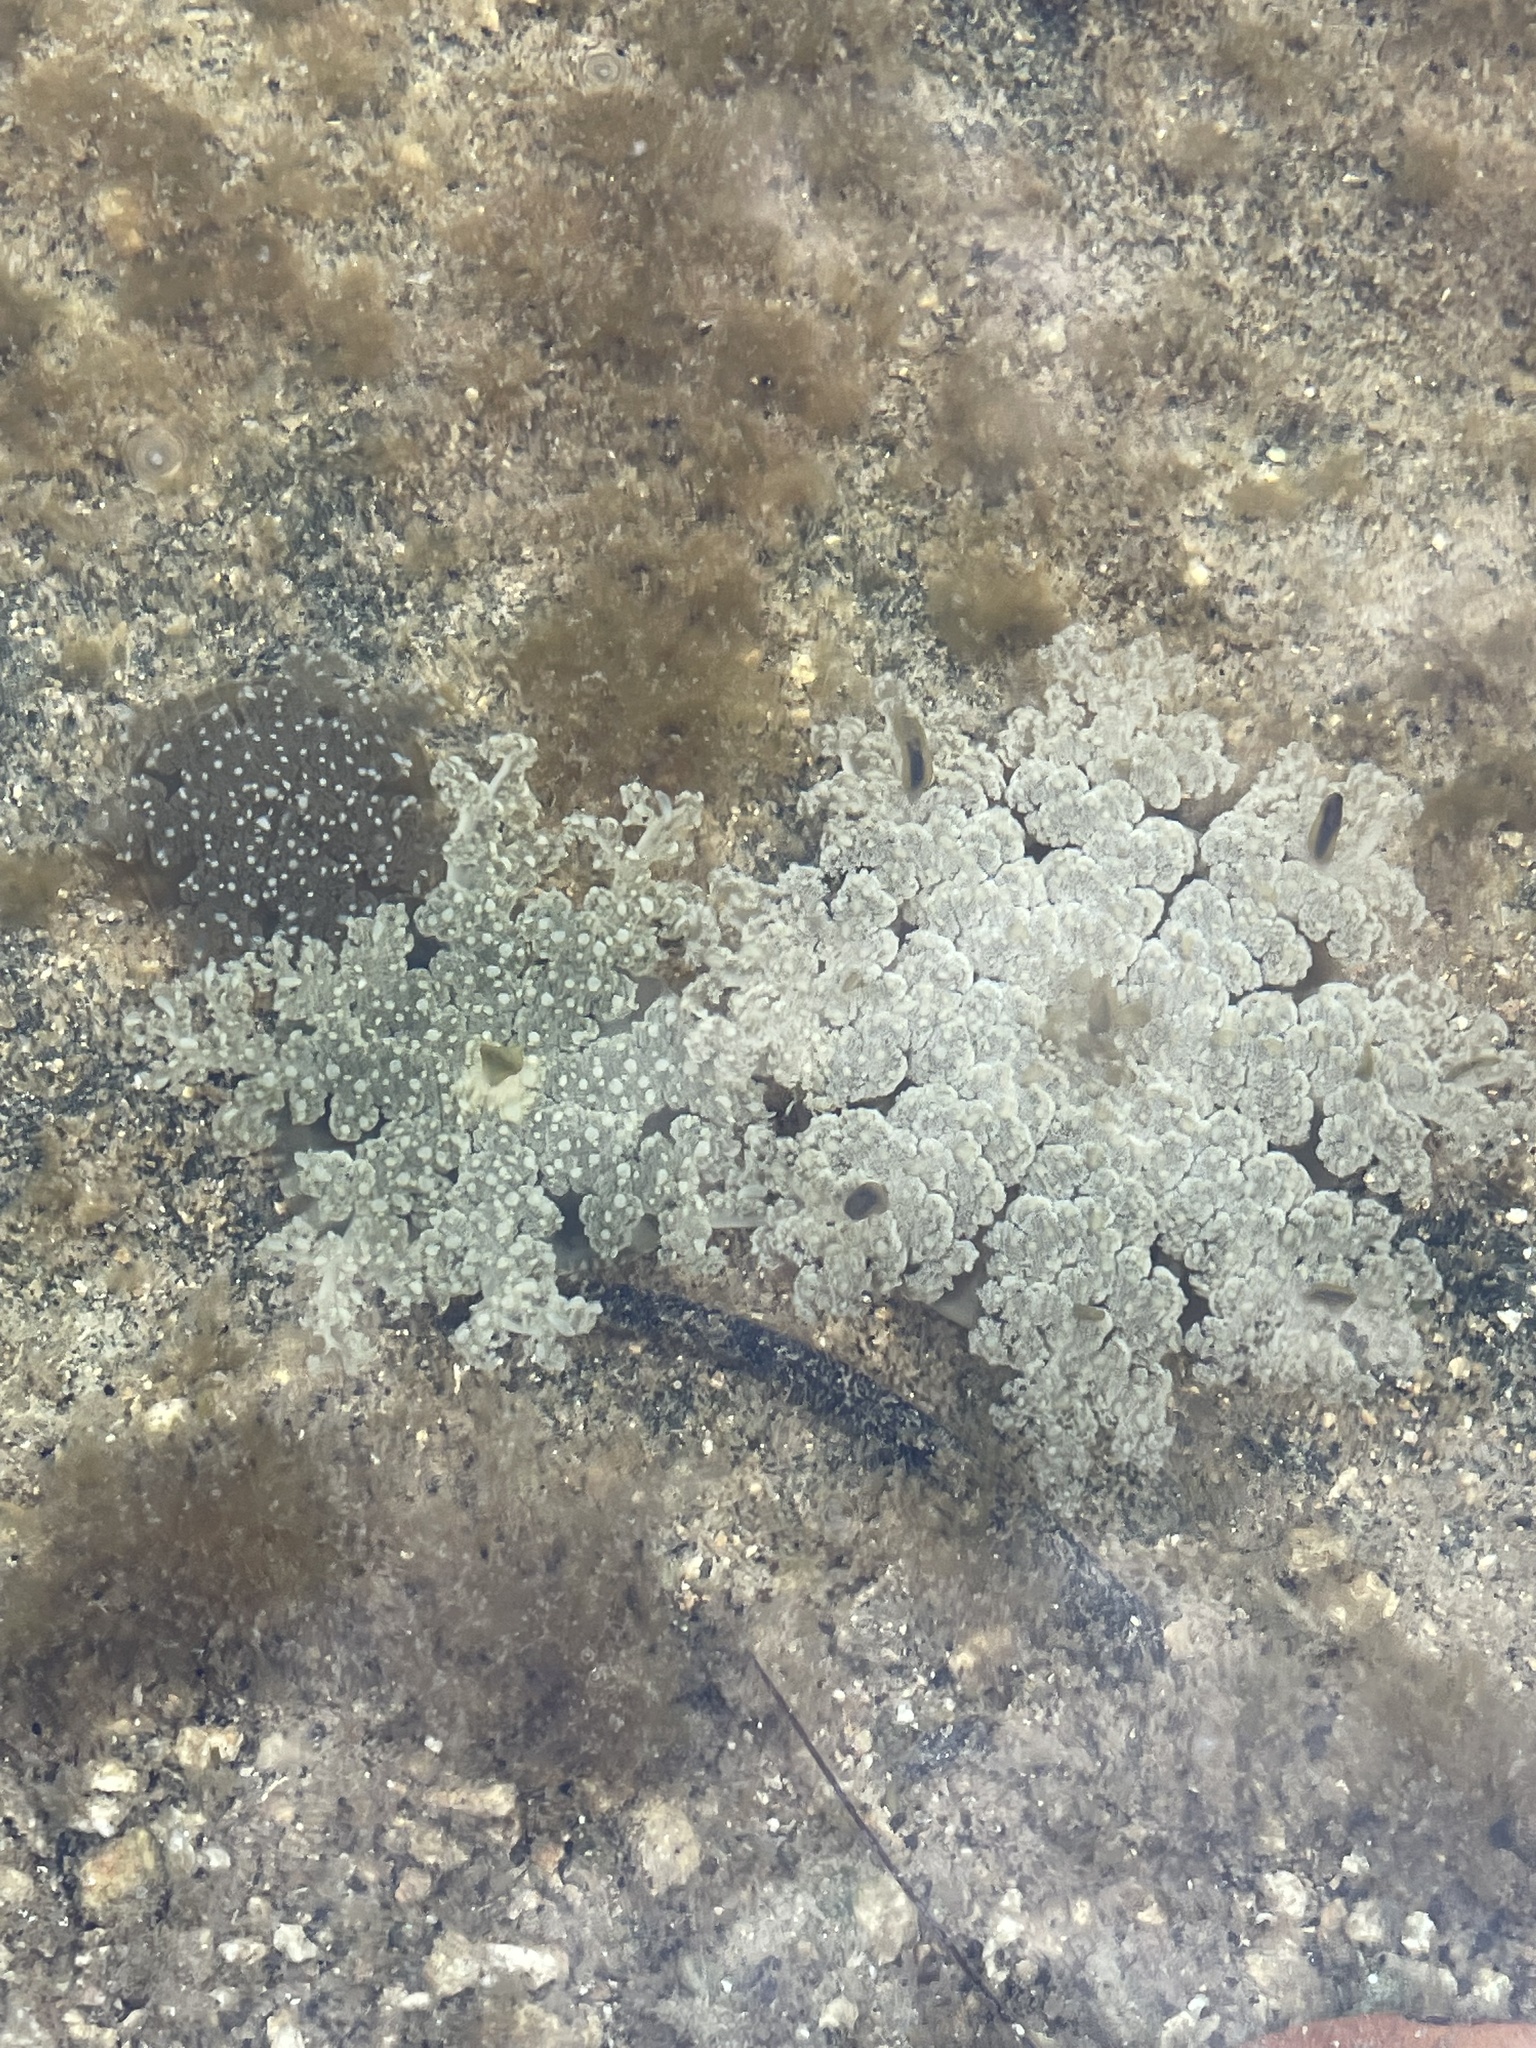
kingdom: Animalia
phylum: Cnidaria
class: Scyphozoa
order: Rhizostomeae
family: Cassiopeidae
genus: Cassiopea
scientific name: Cassiopea andromeda
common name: Upside-down jellyfish
